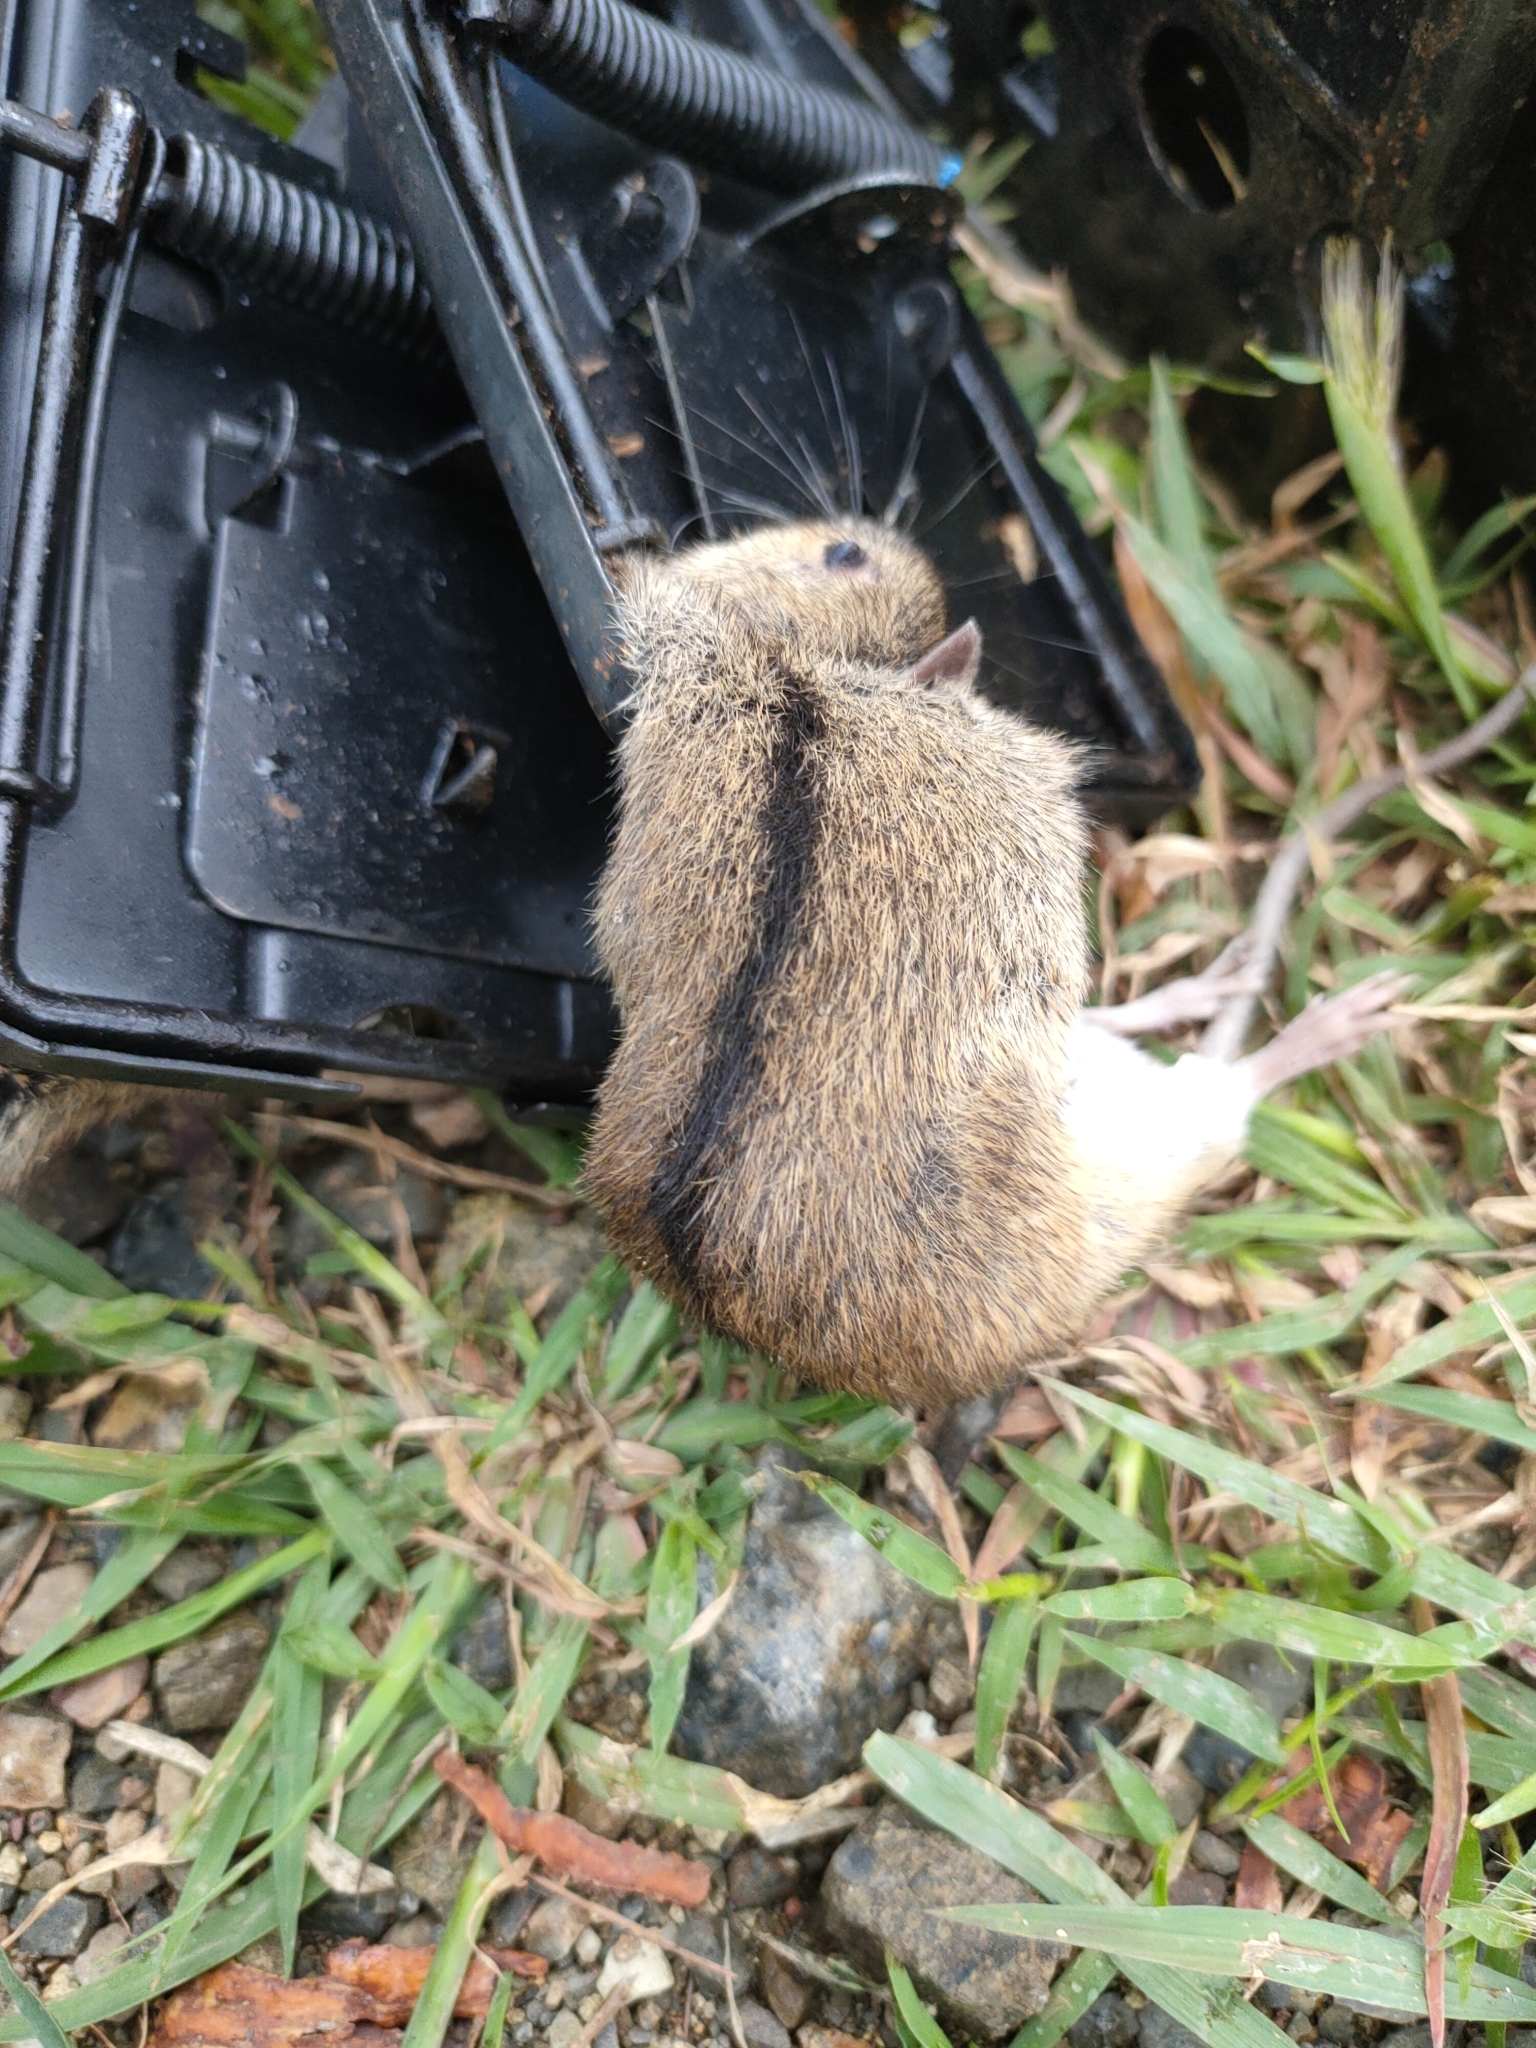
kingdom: Animalia
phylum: Chordata
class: Mammalia
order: Rodentia
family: Muridae
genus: Apodemus
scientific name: Apodemus agrarius
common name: Striped field mouse
